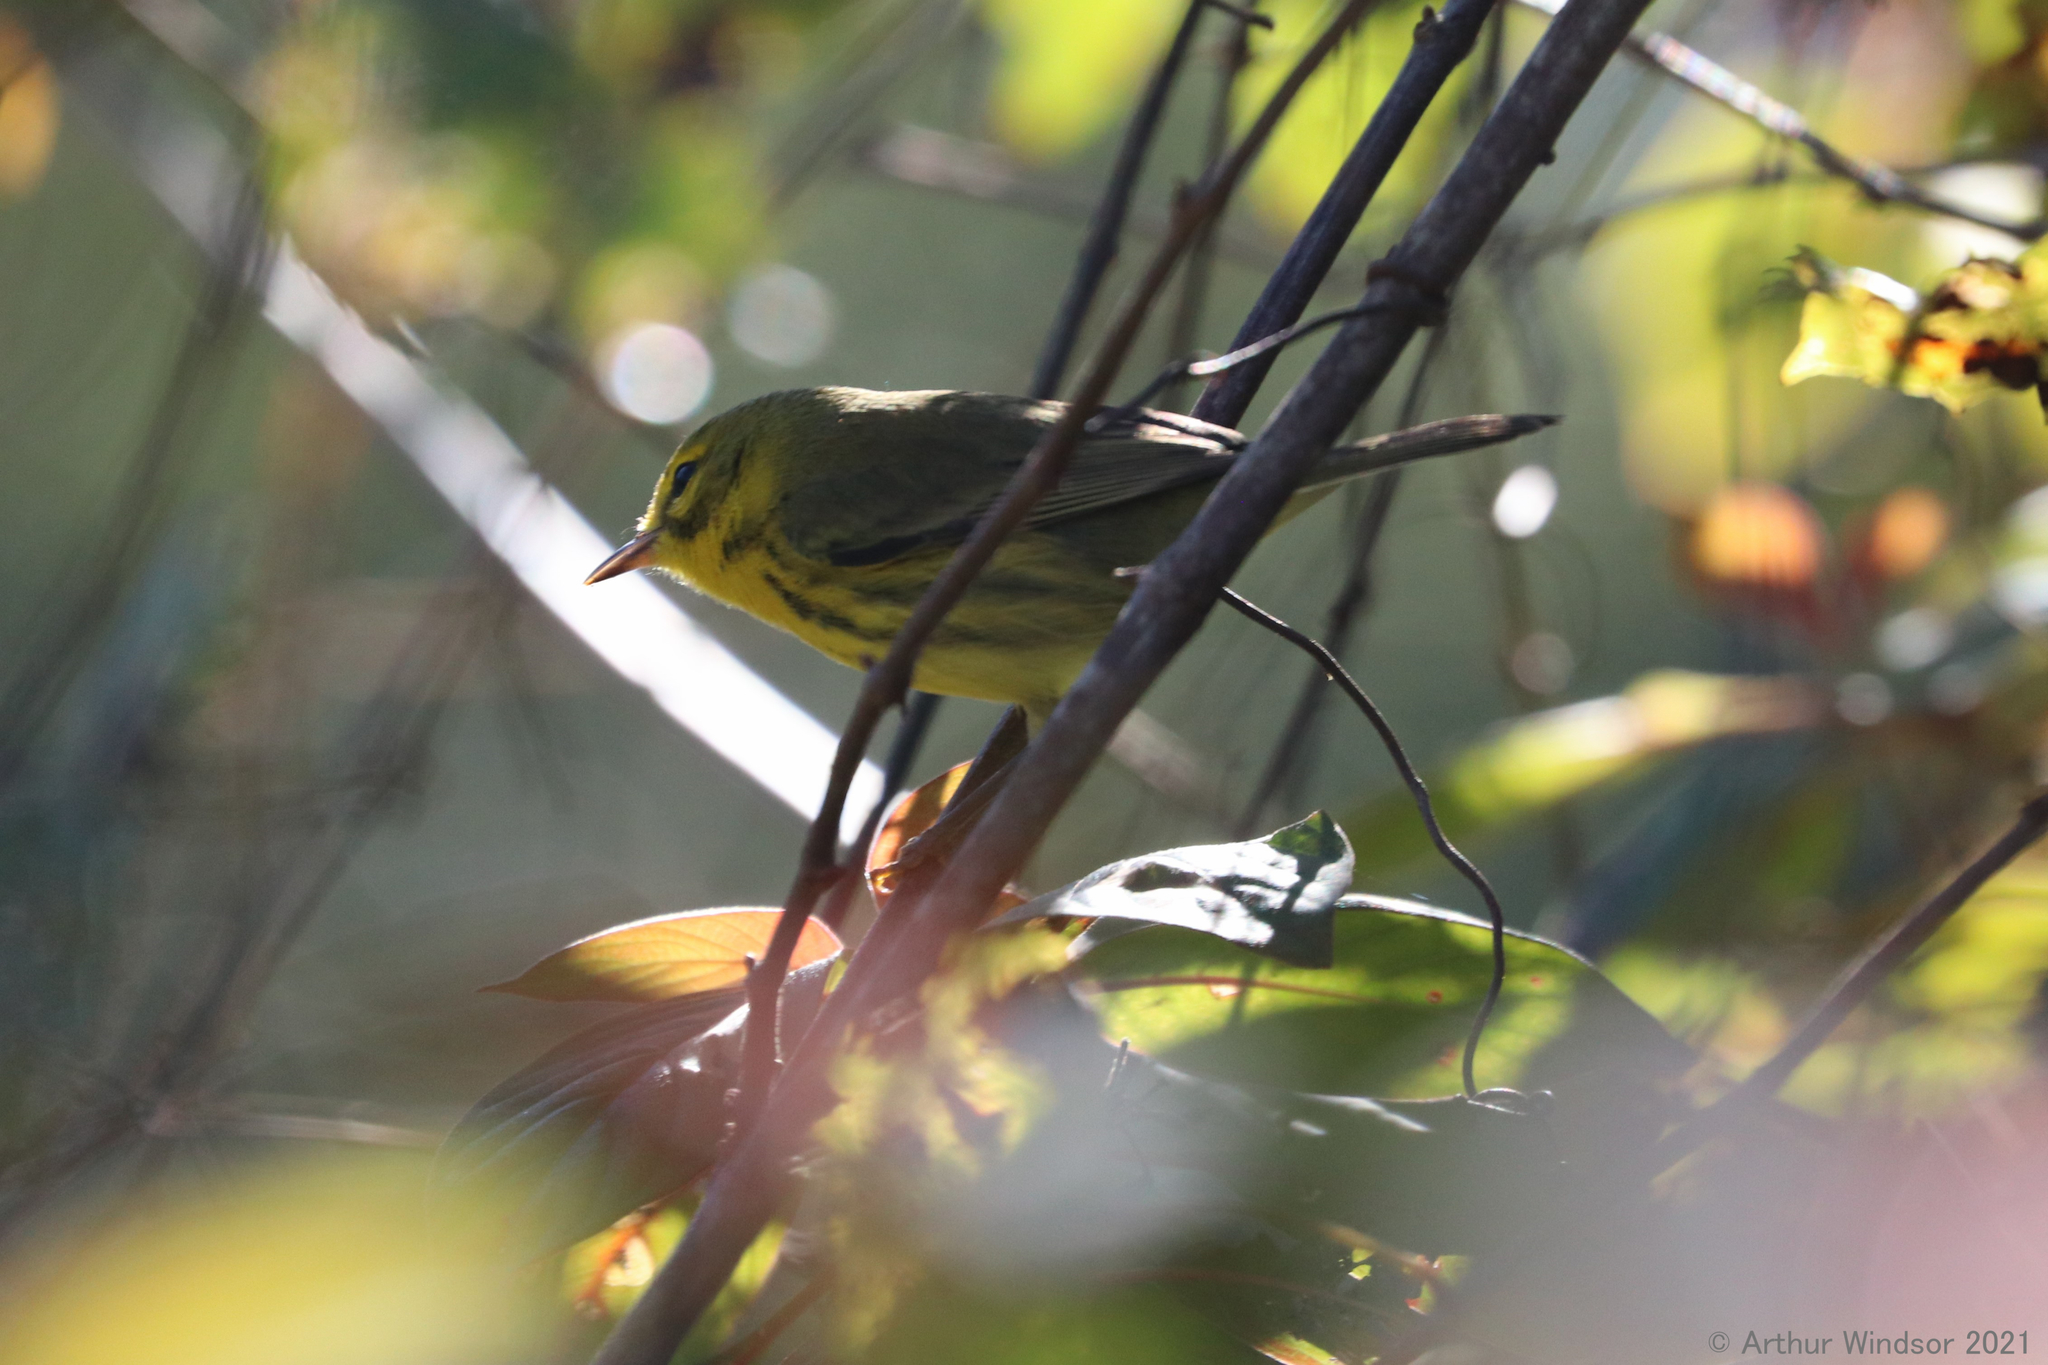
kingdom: Animalia
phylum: Chordata
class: Aves
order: Passeriformes
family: Parulidae
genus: Setophaga
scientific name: Setophaga discolor
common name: Prairie warbler
